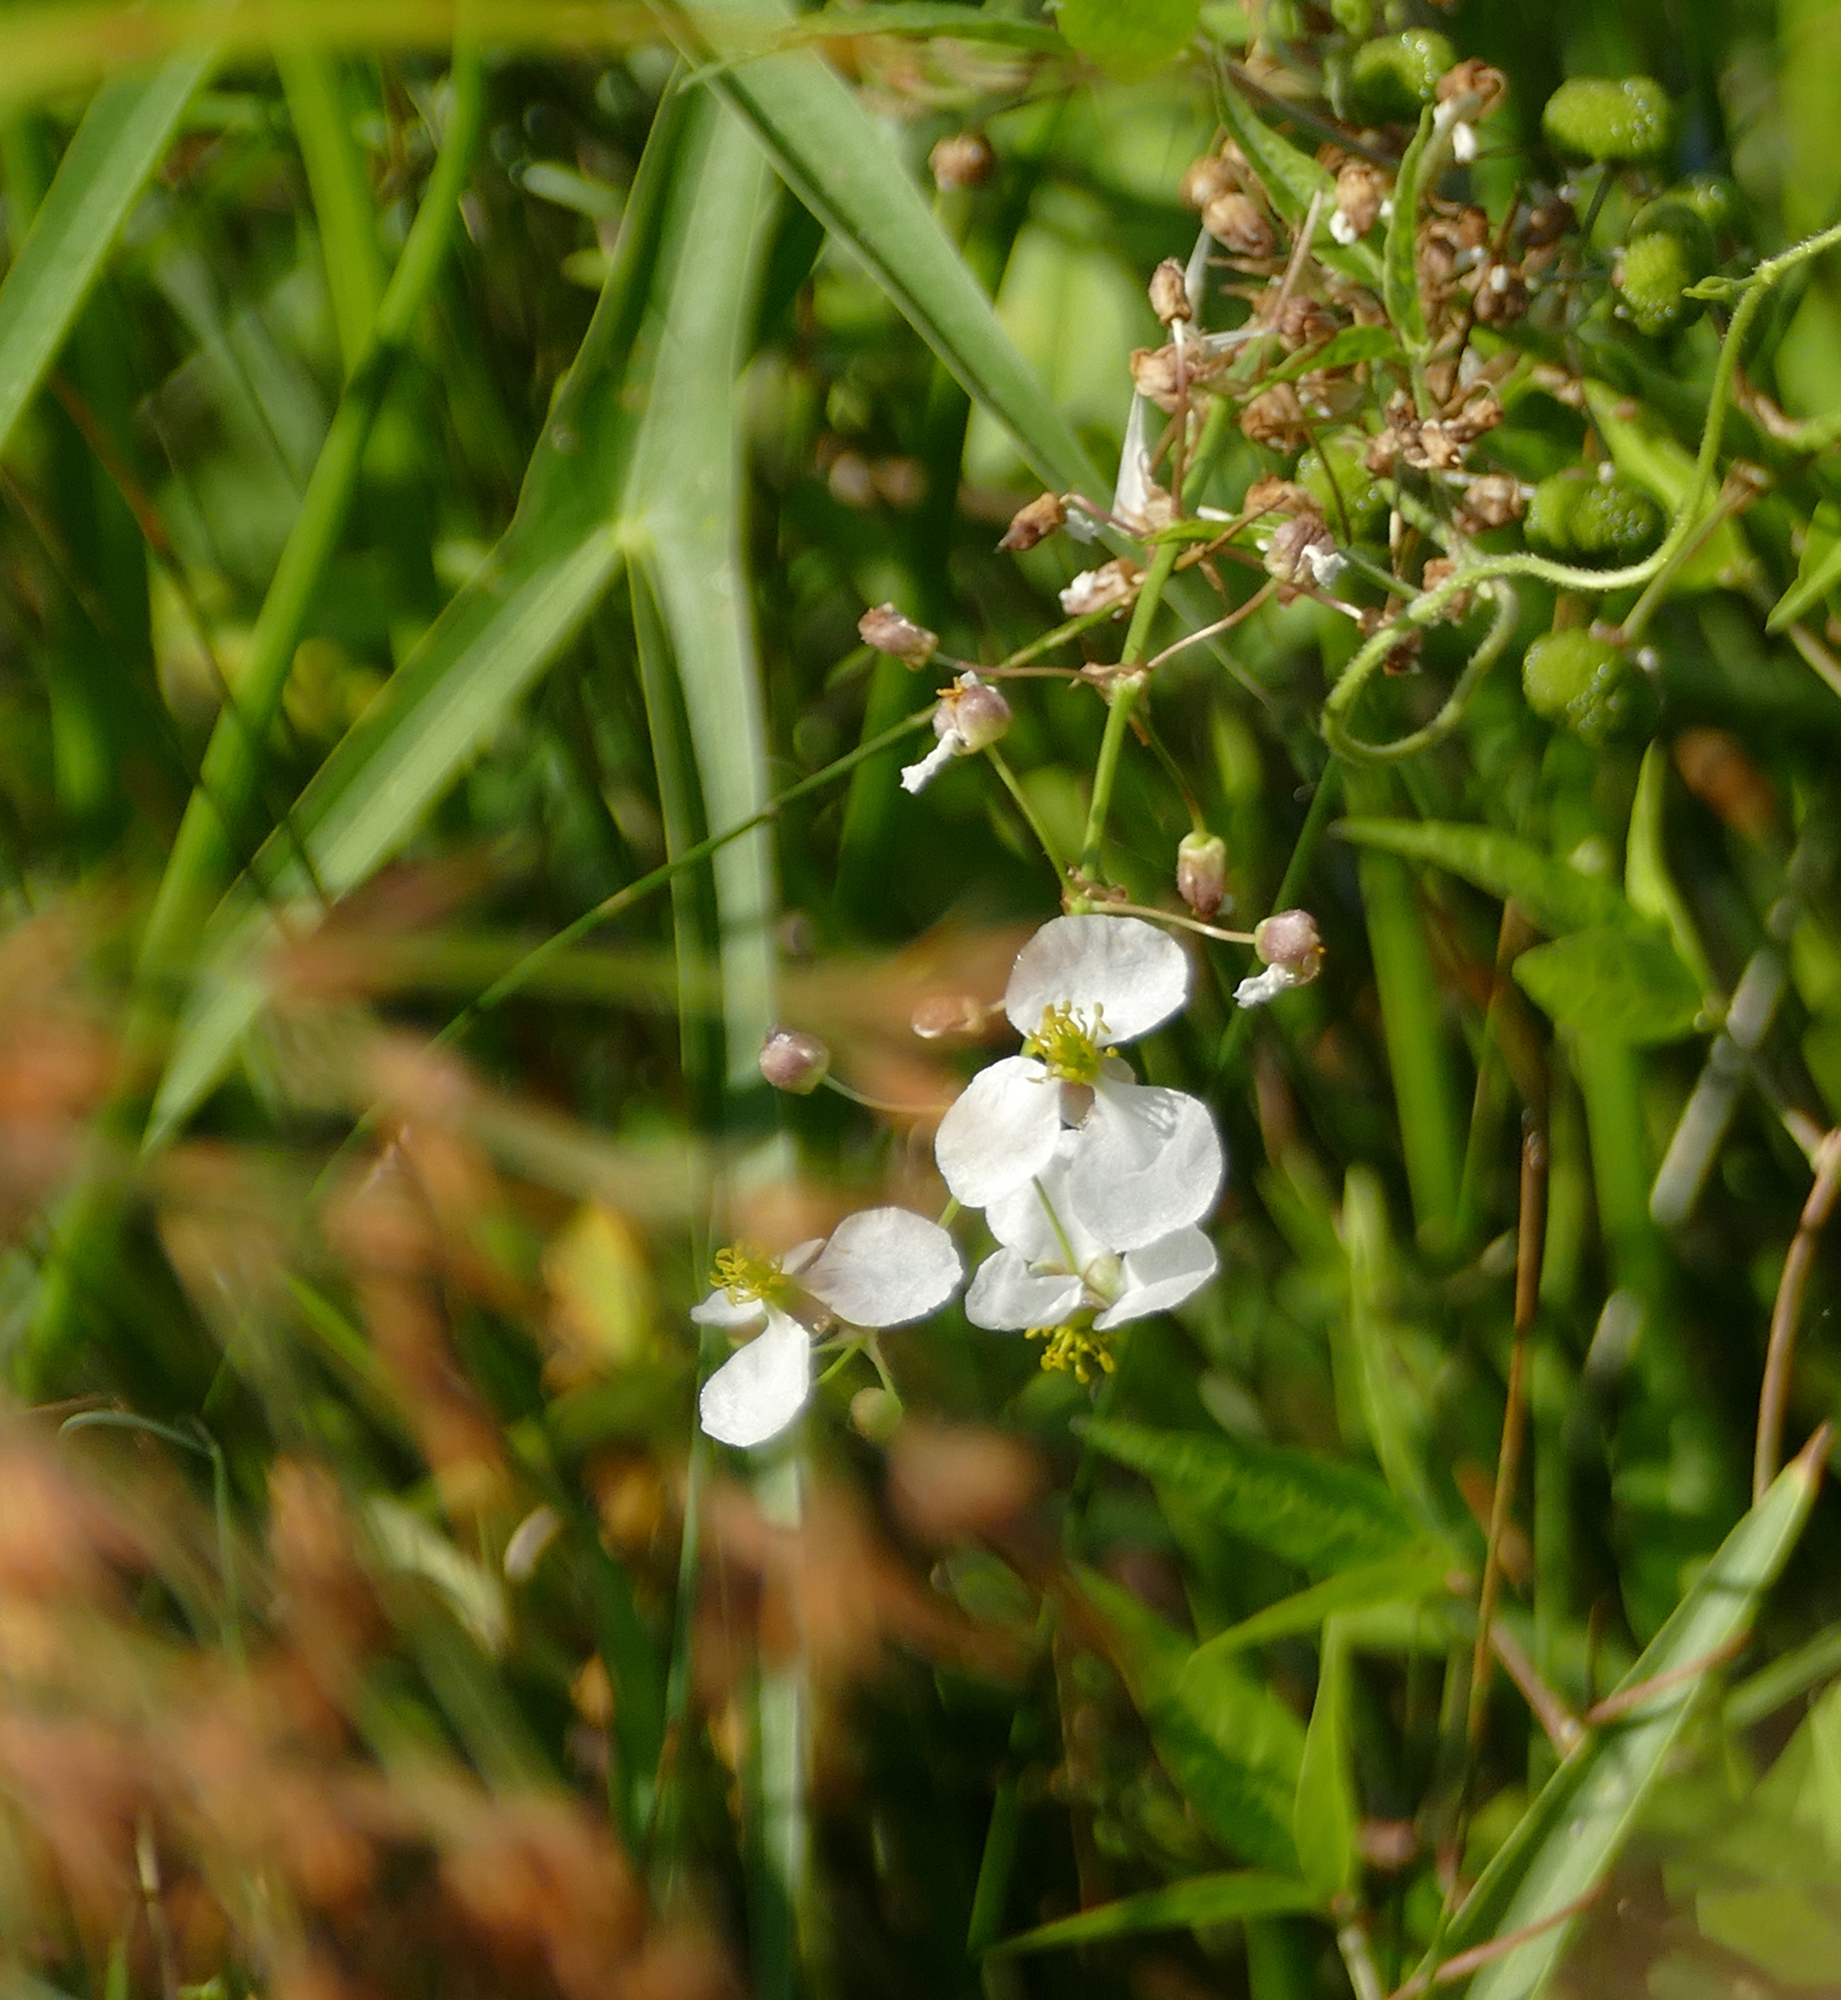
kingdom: Plantae
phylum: Tracheophyta
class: Liliopsida
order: Alismatales
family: Alismataceae
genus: Sagittaria
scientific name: Sagittaria longiloba
